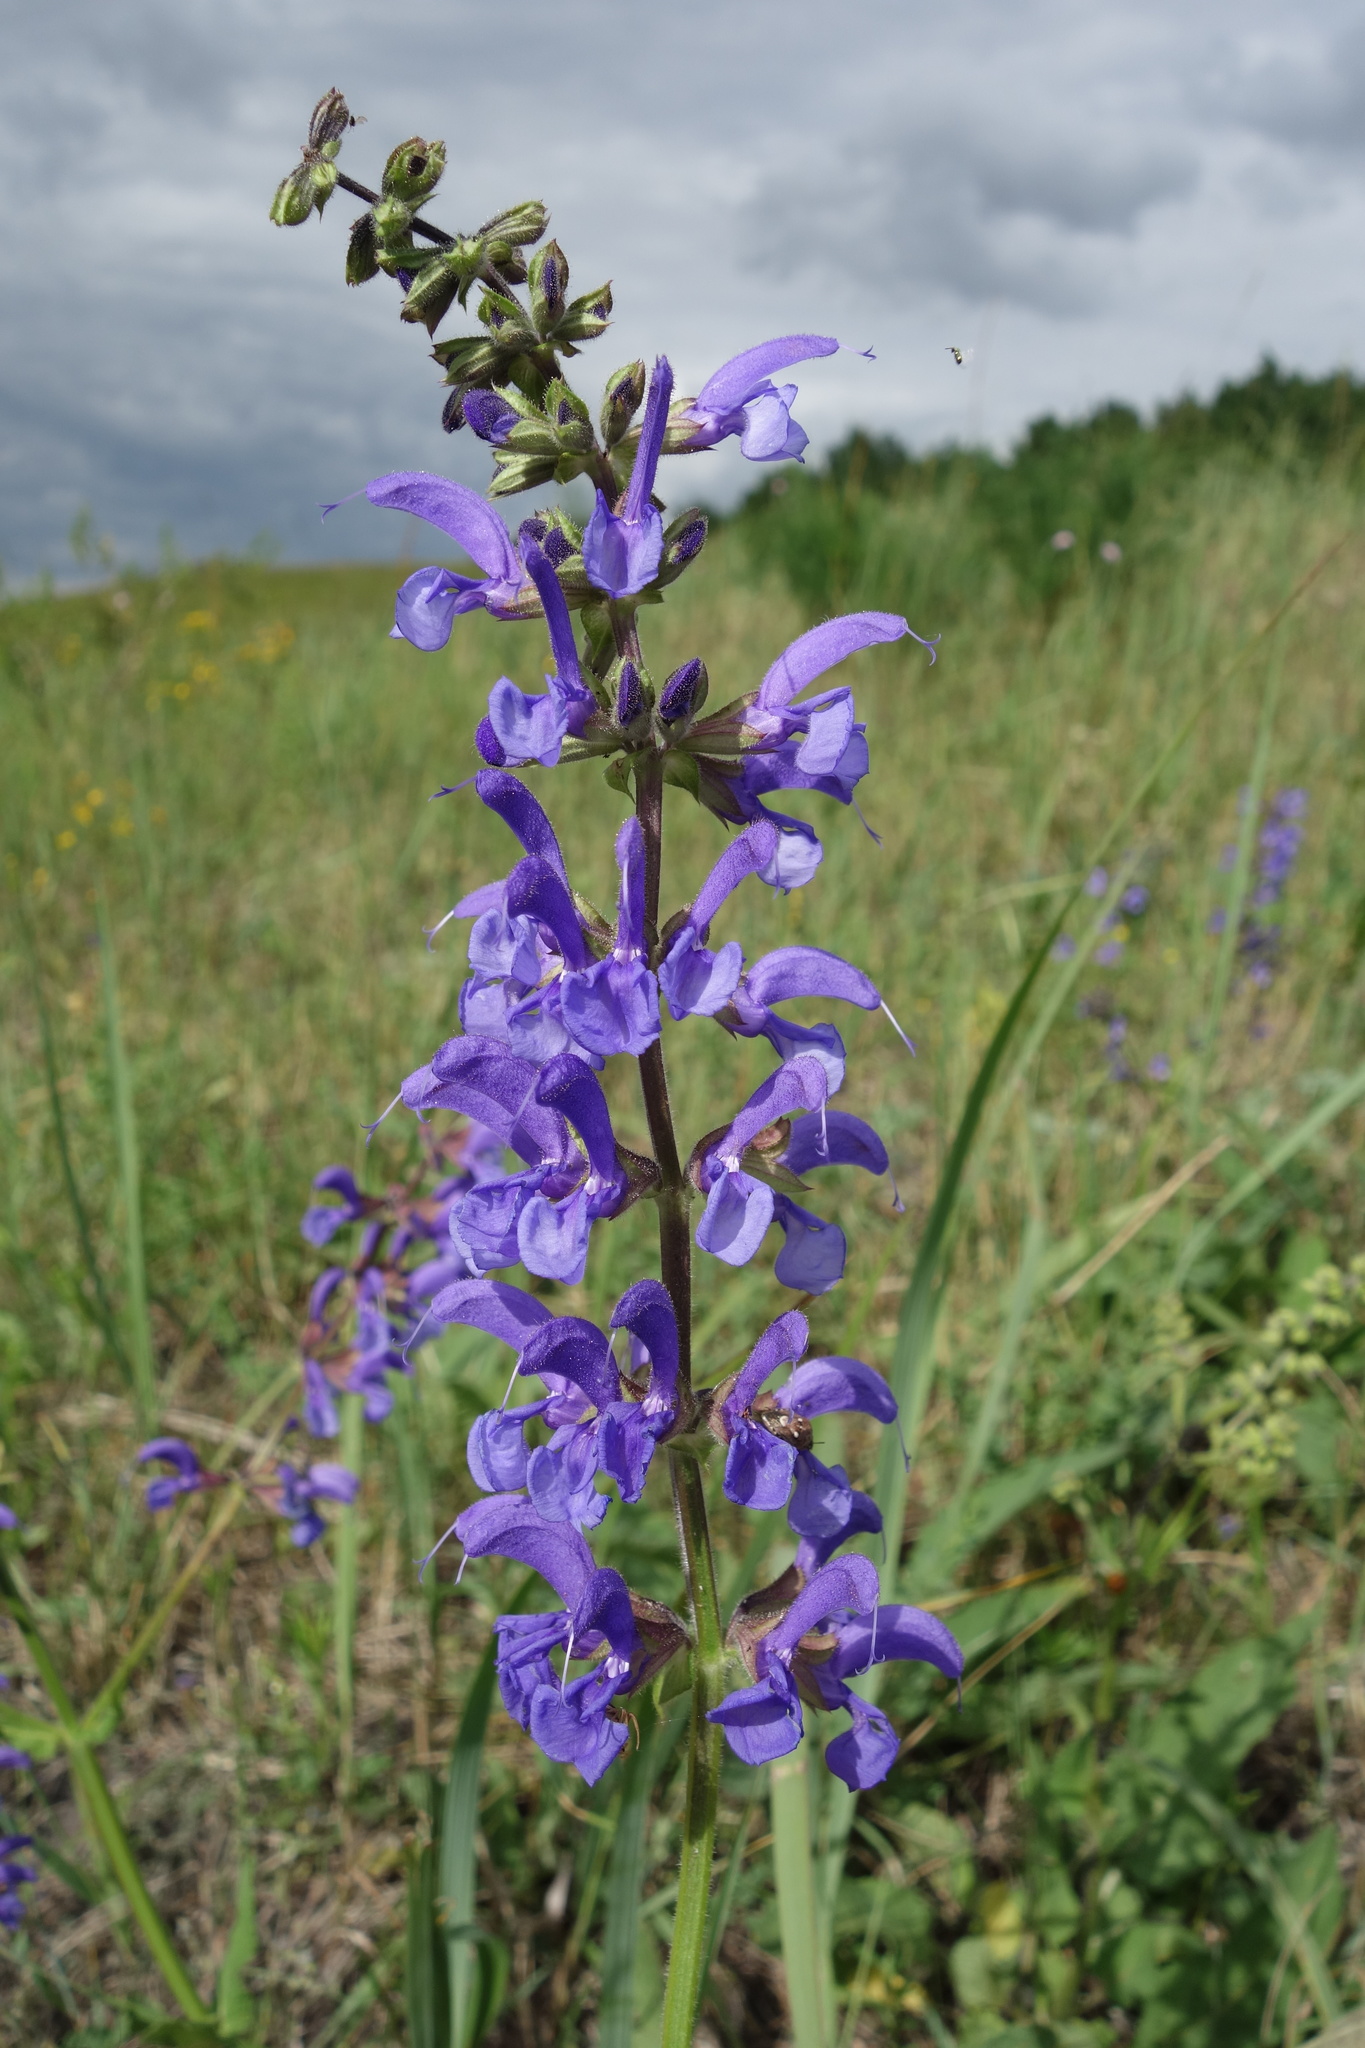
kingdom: Plantae
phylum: Tracheophyta
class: Magnoliopsida
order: Lamiales
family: Lamiaceae
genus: Salvia
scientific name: Salvia pratensis
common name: Meadow sage
